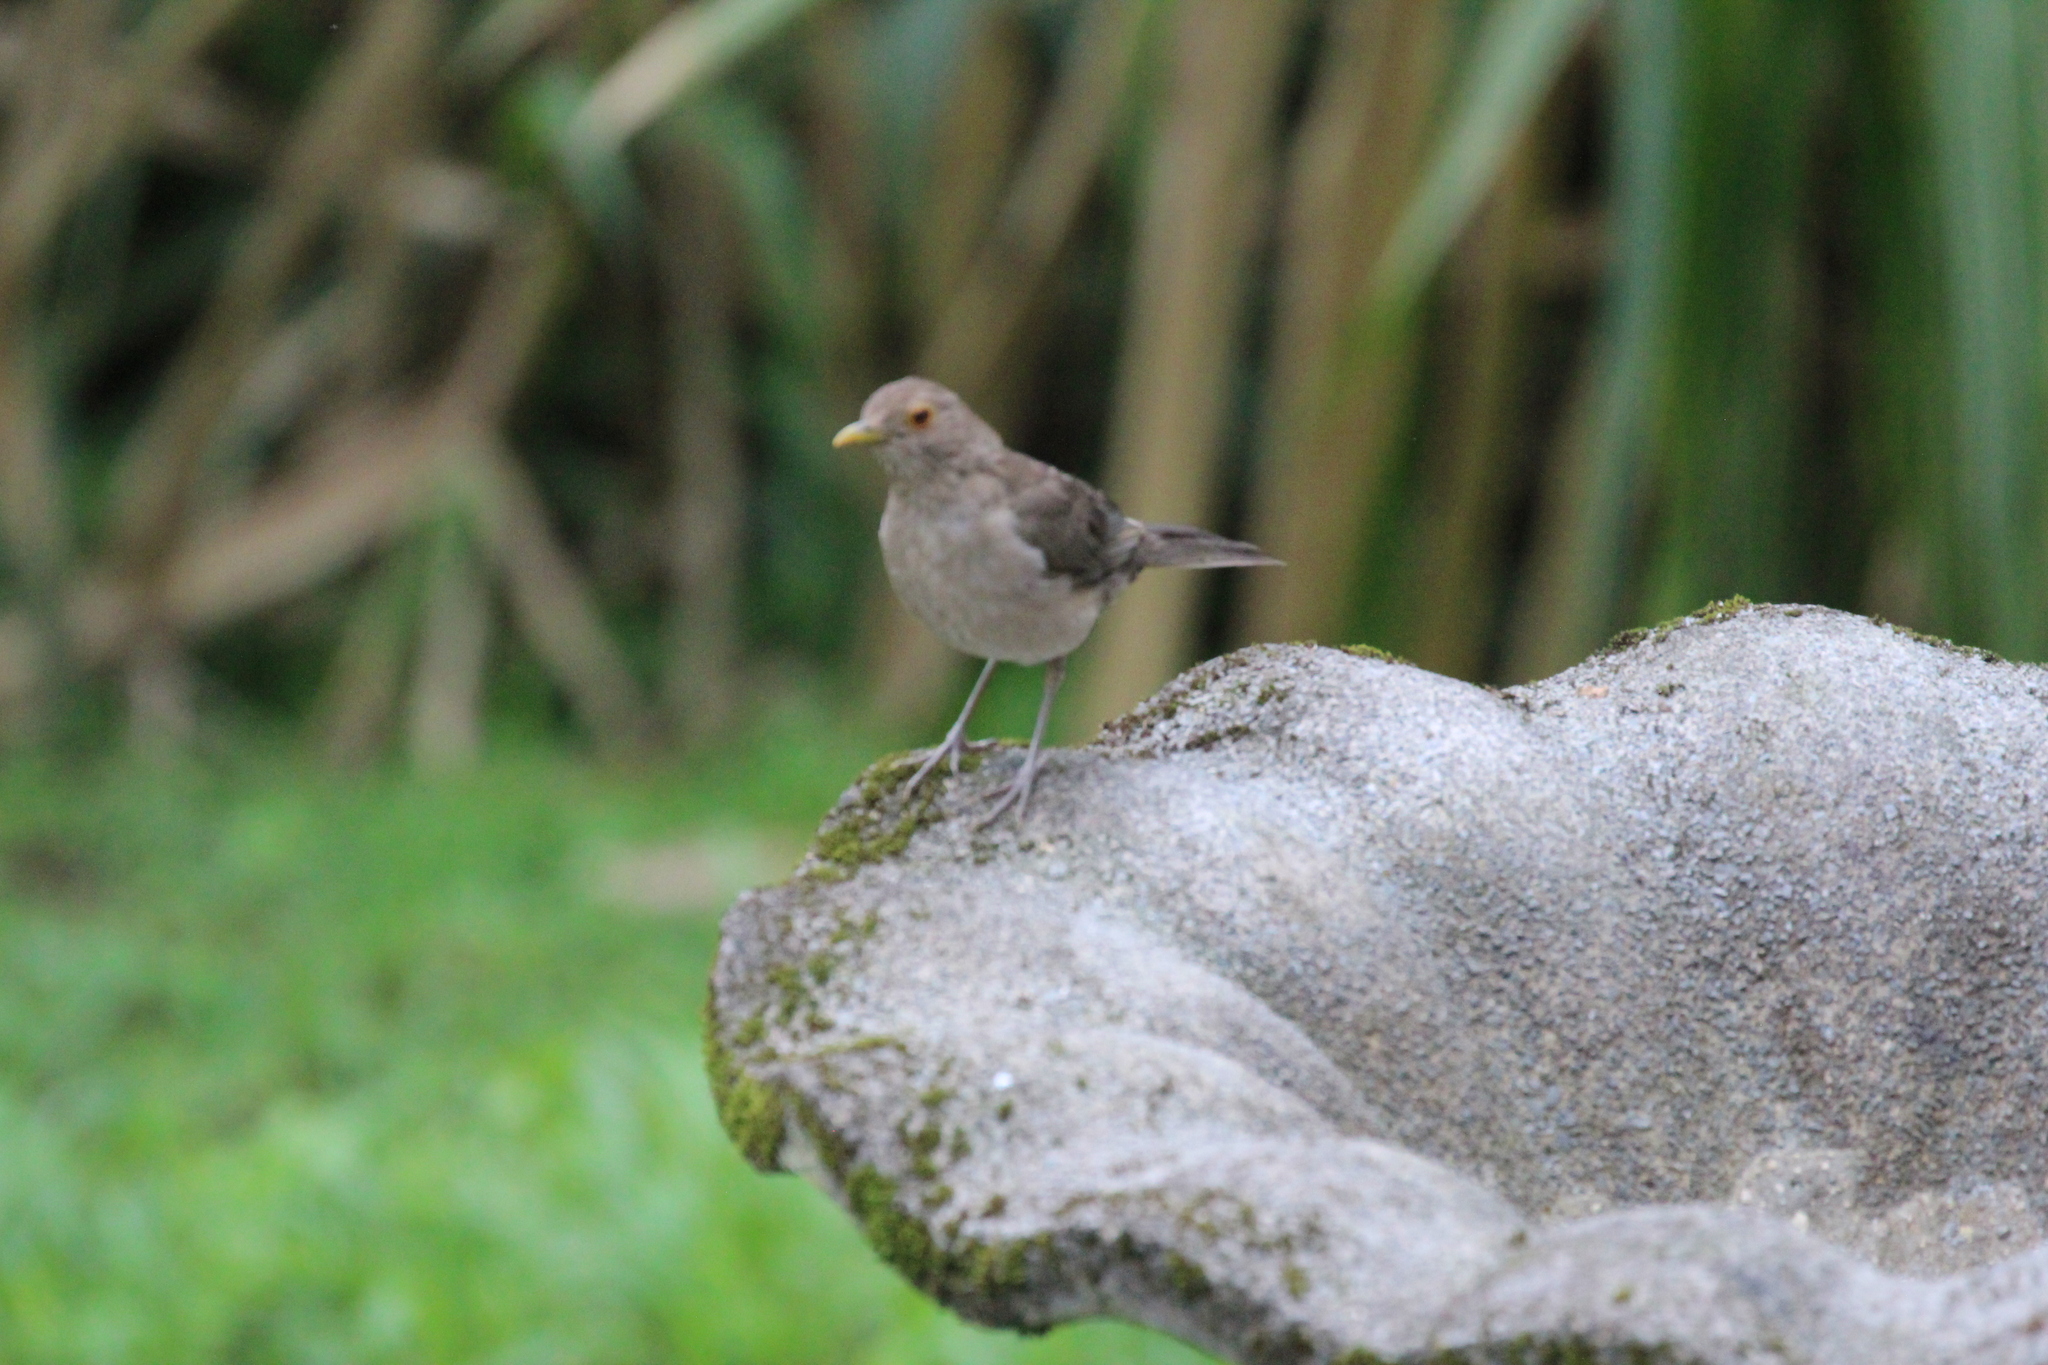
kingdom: Animalia
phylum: Chordata
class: Aves
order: Passeriformes
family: Turdidae
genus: Turdus
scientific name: Turdus maculirostris
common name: Ecuadorian thrush
